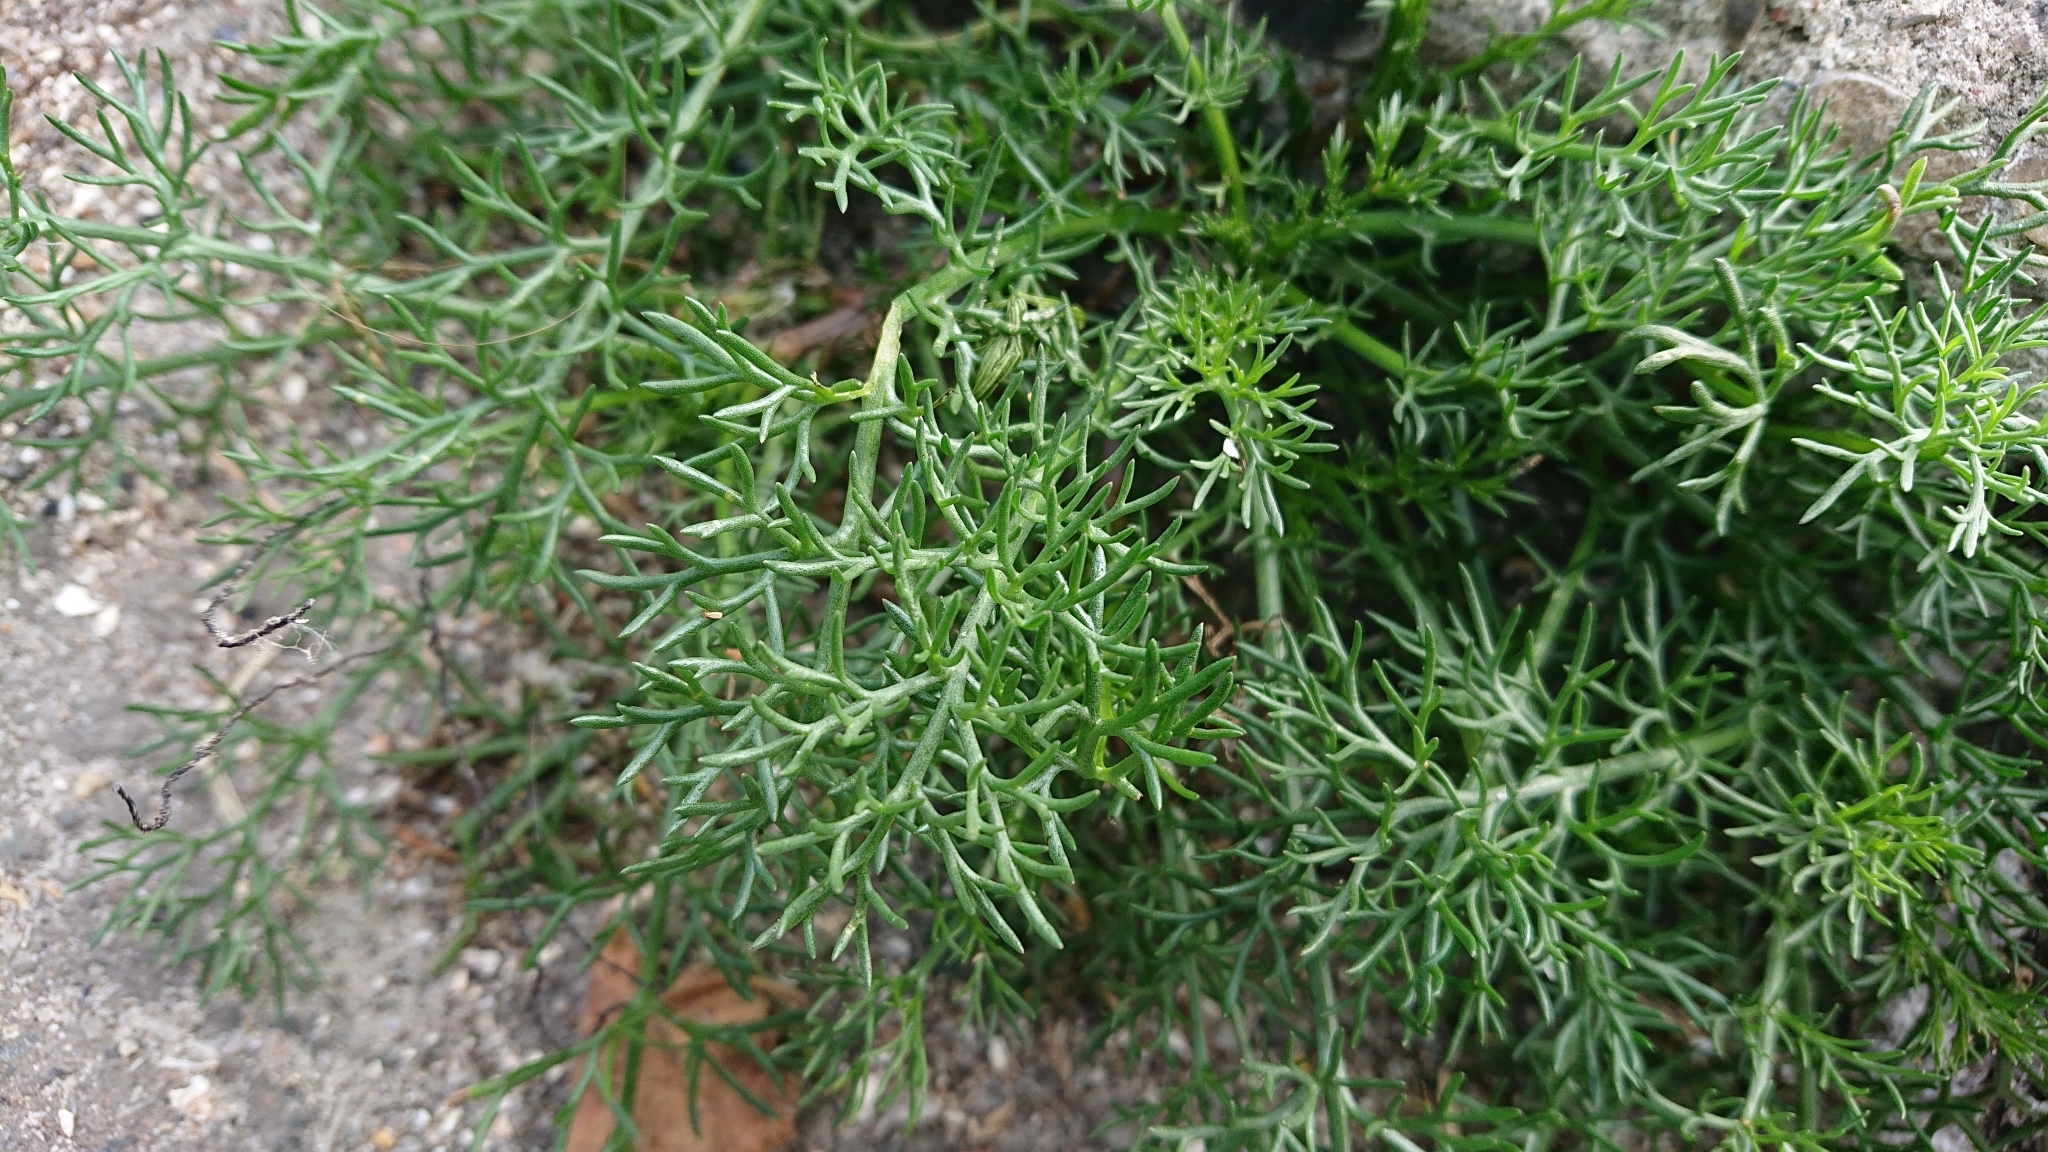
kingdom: Plantae
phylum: Tracheophyta
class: Magnoliopsida
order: Asterales
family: Asteraceae
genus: Matricaria
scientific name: Matricaria discoidea
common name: Disc mayweed
